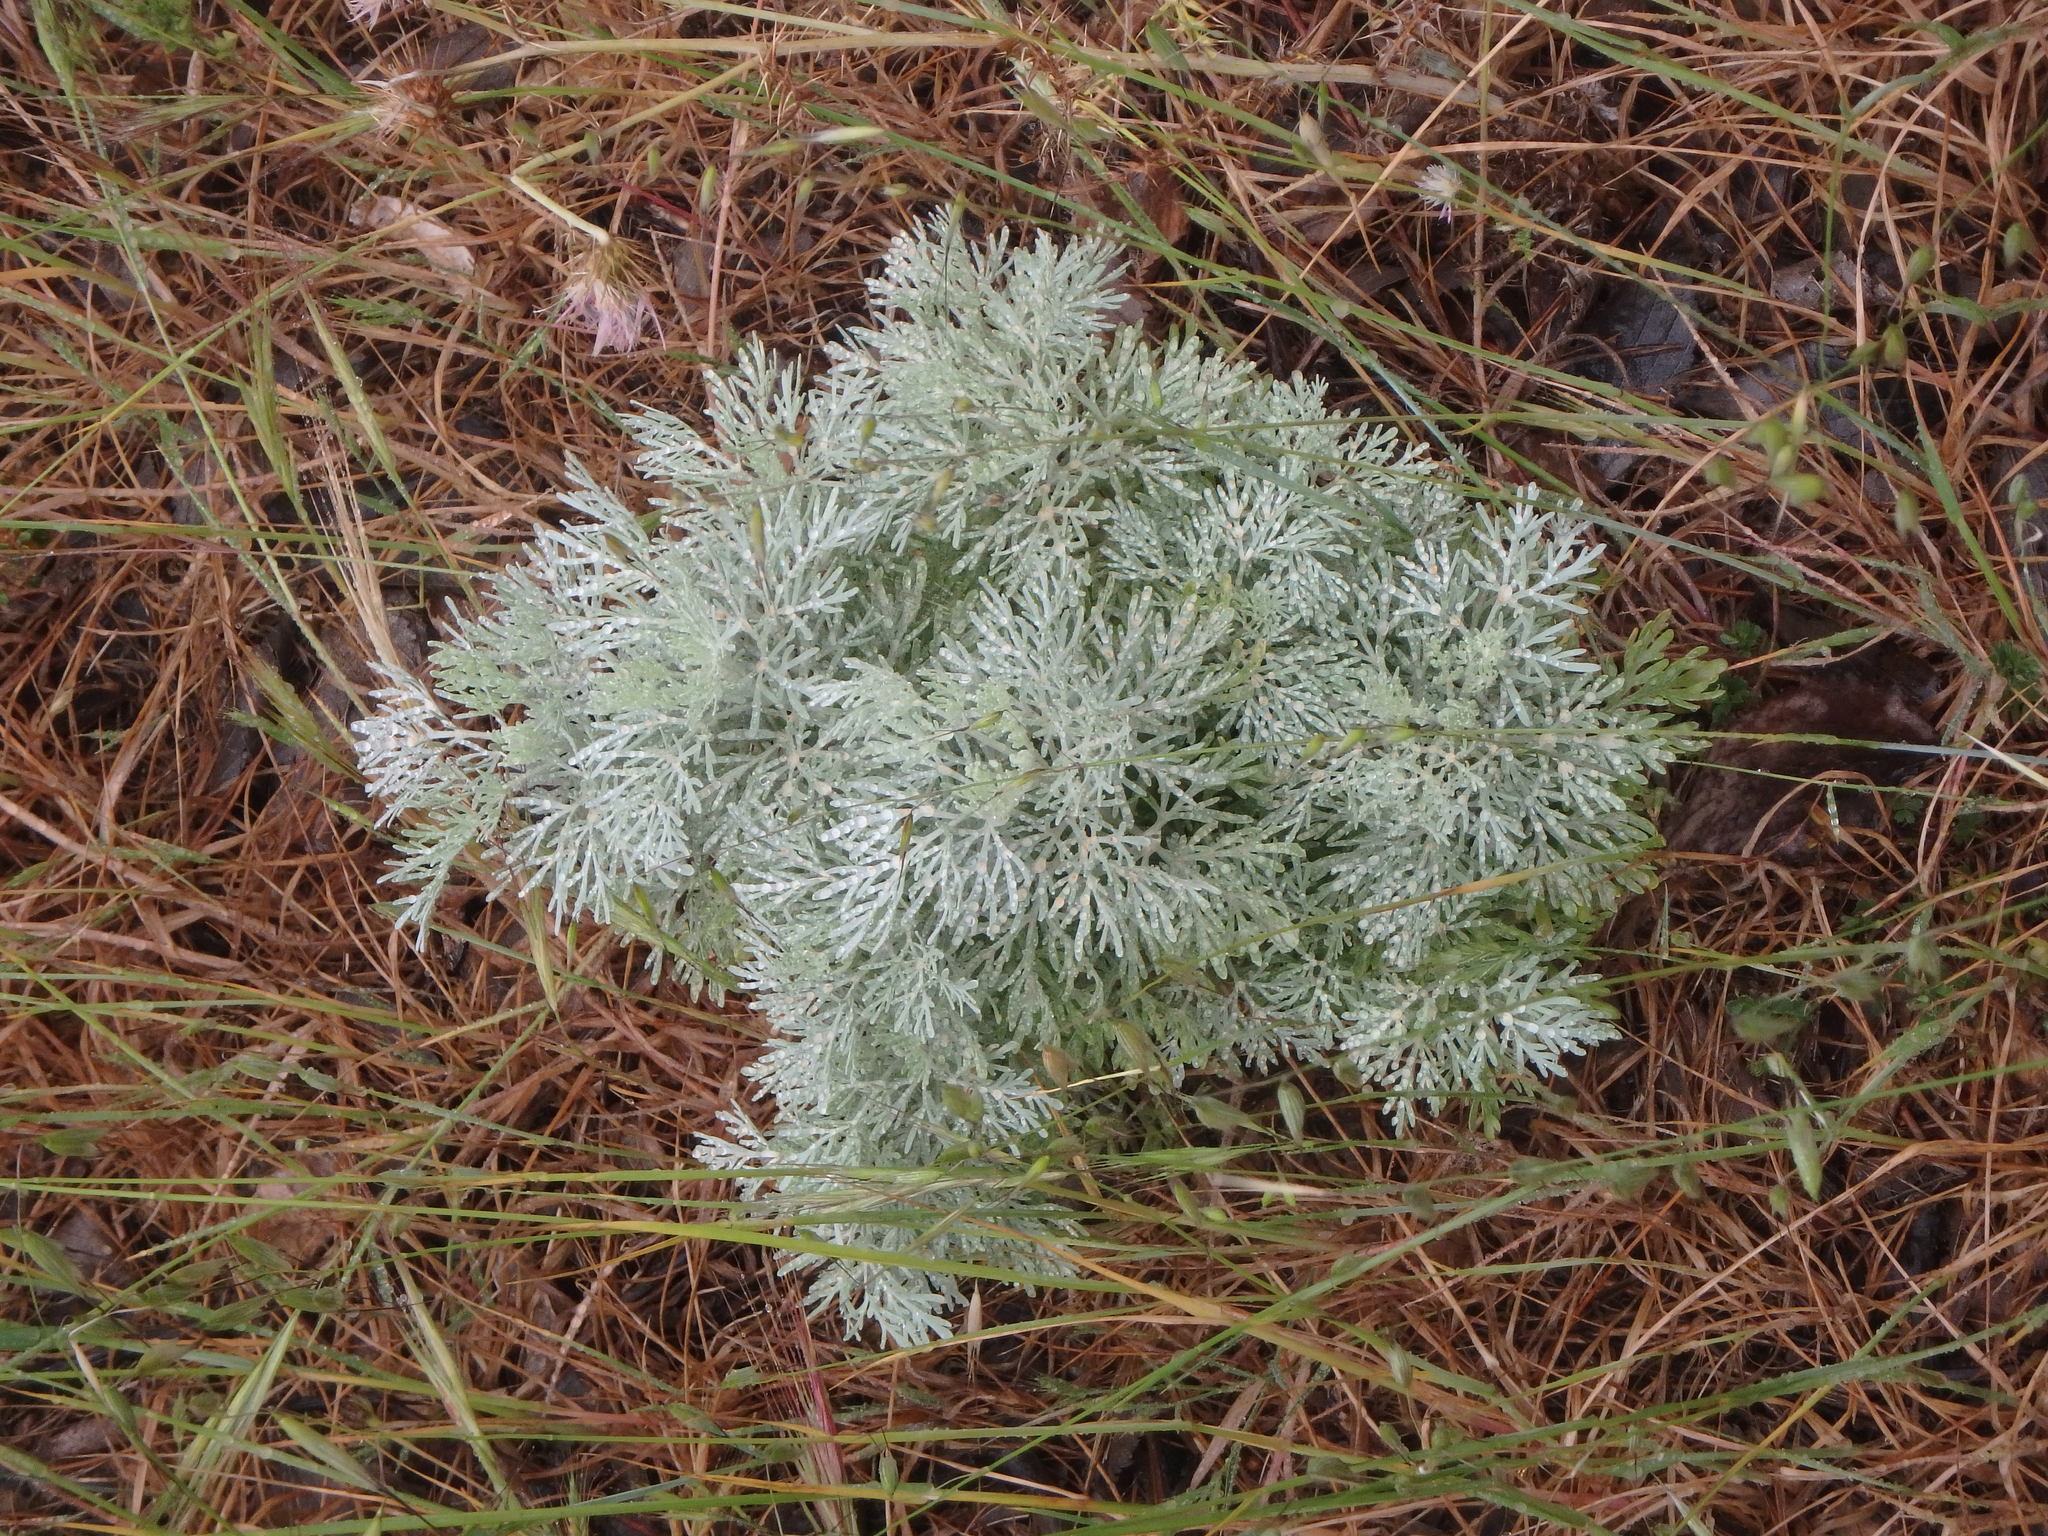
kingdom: Plantae
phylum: Tracheophyta
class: Magnoliopsida
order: Asterales
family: Asteraceae
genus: Artemisia
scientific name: Artemisia arborescens
